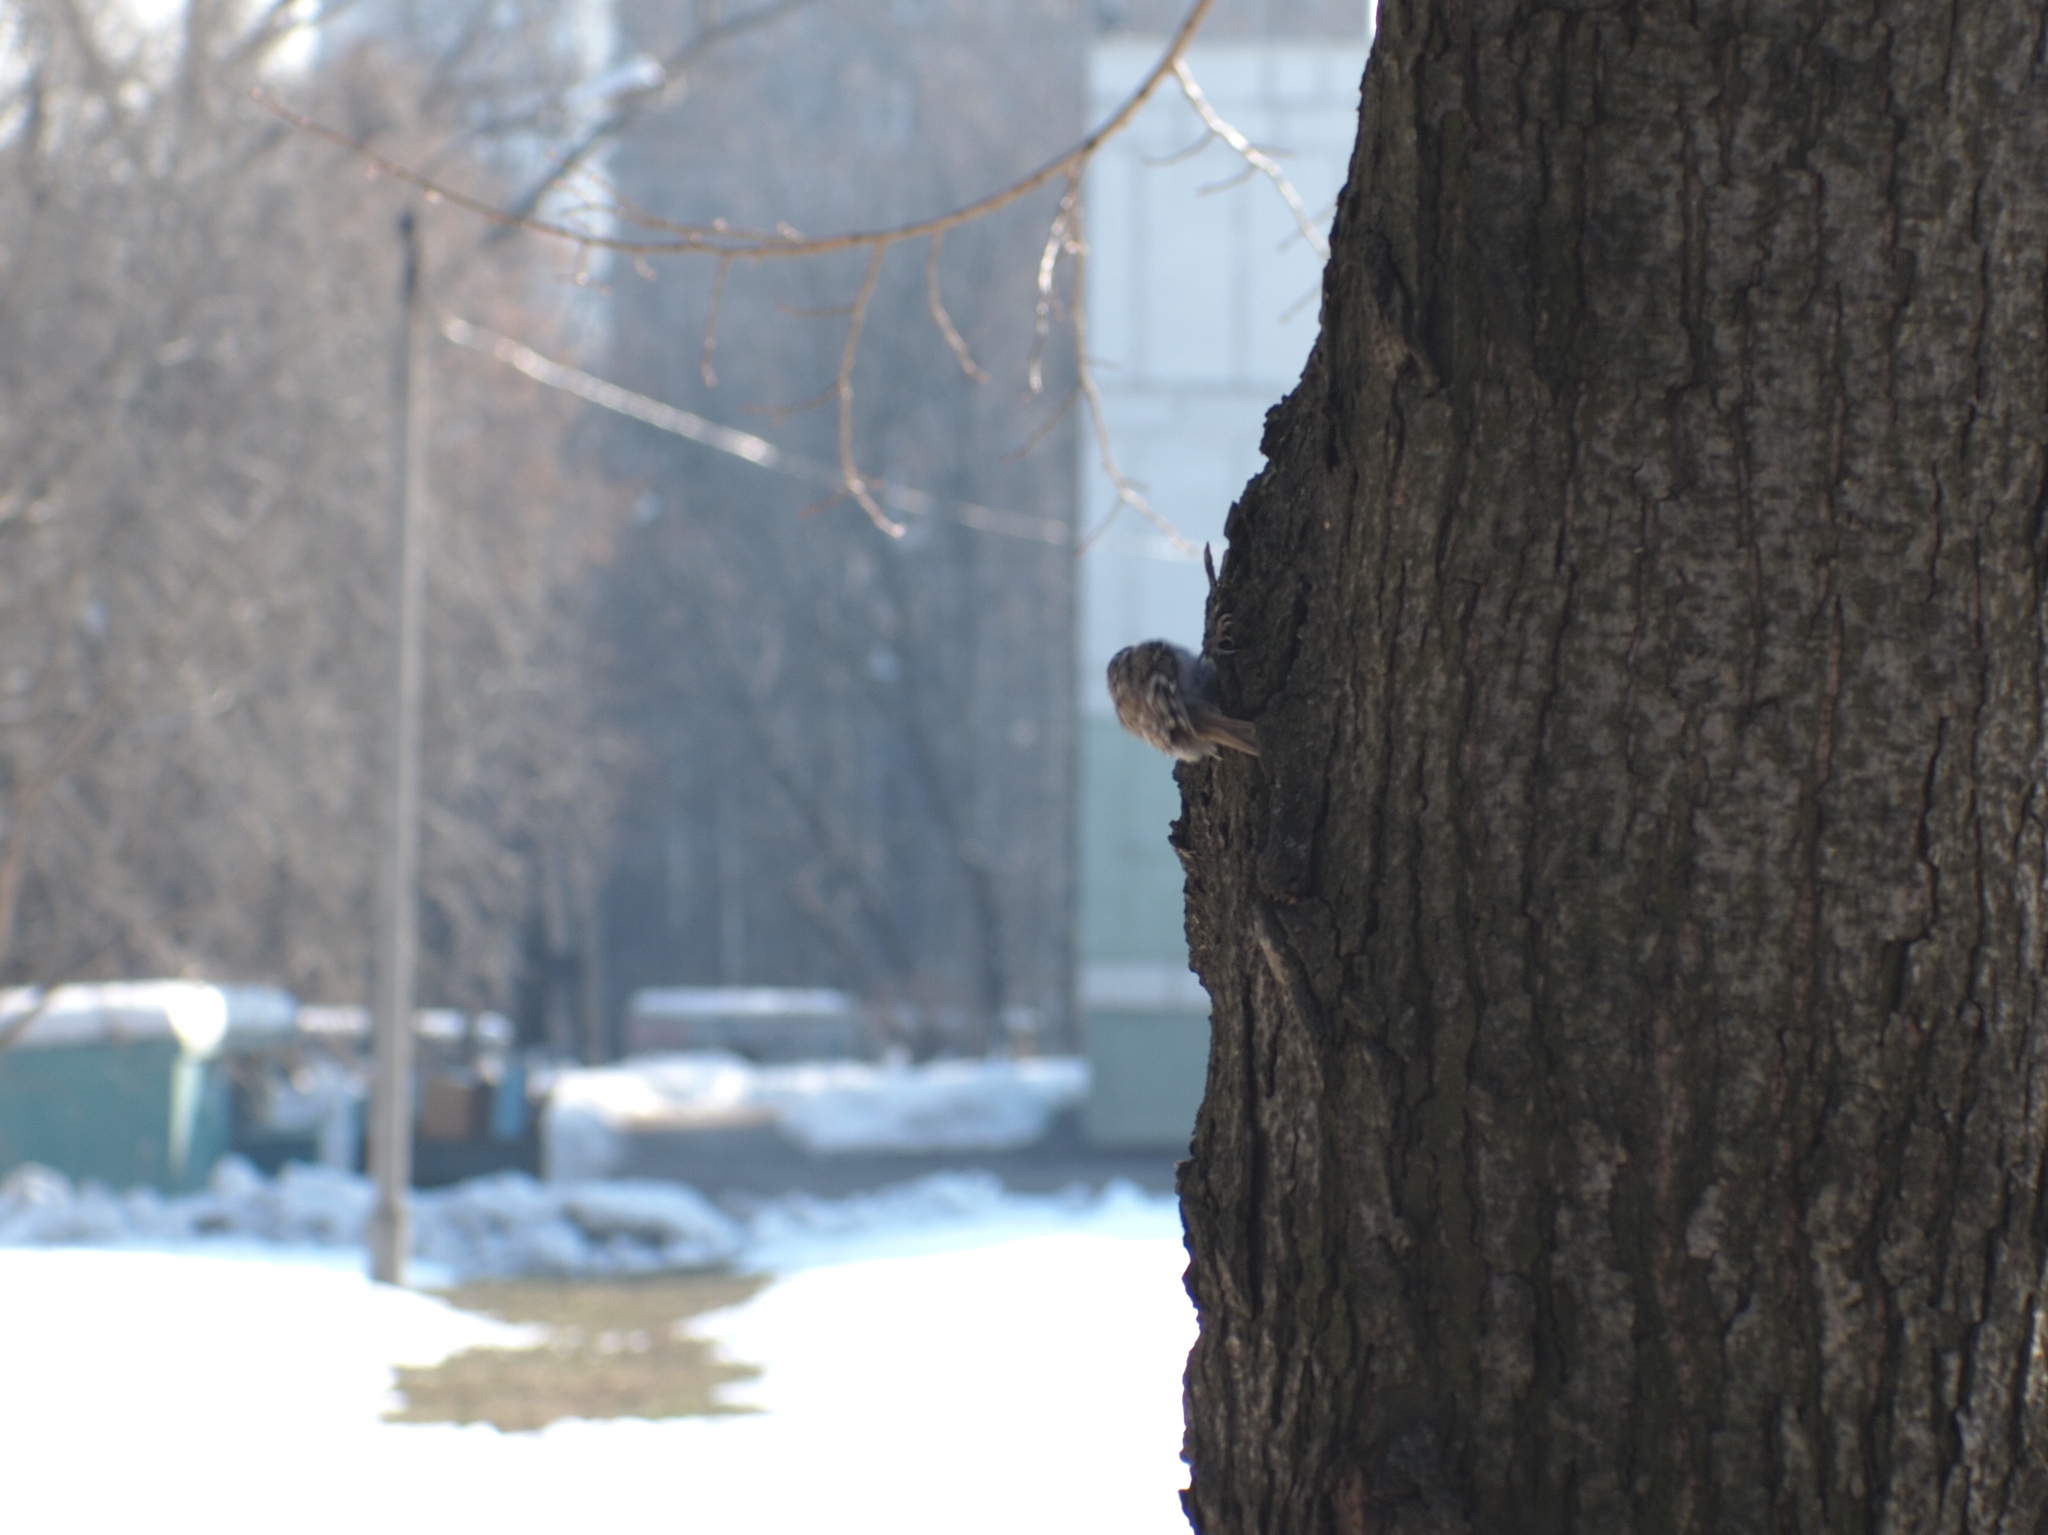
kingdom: Animalia
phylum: Chordata
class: Aves
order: Passeriformes
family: Certhiidae
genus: Certhia
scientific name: Certhia familiaris
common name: Eurasian treecreeper
